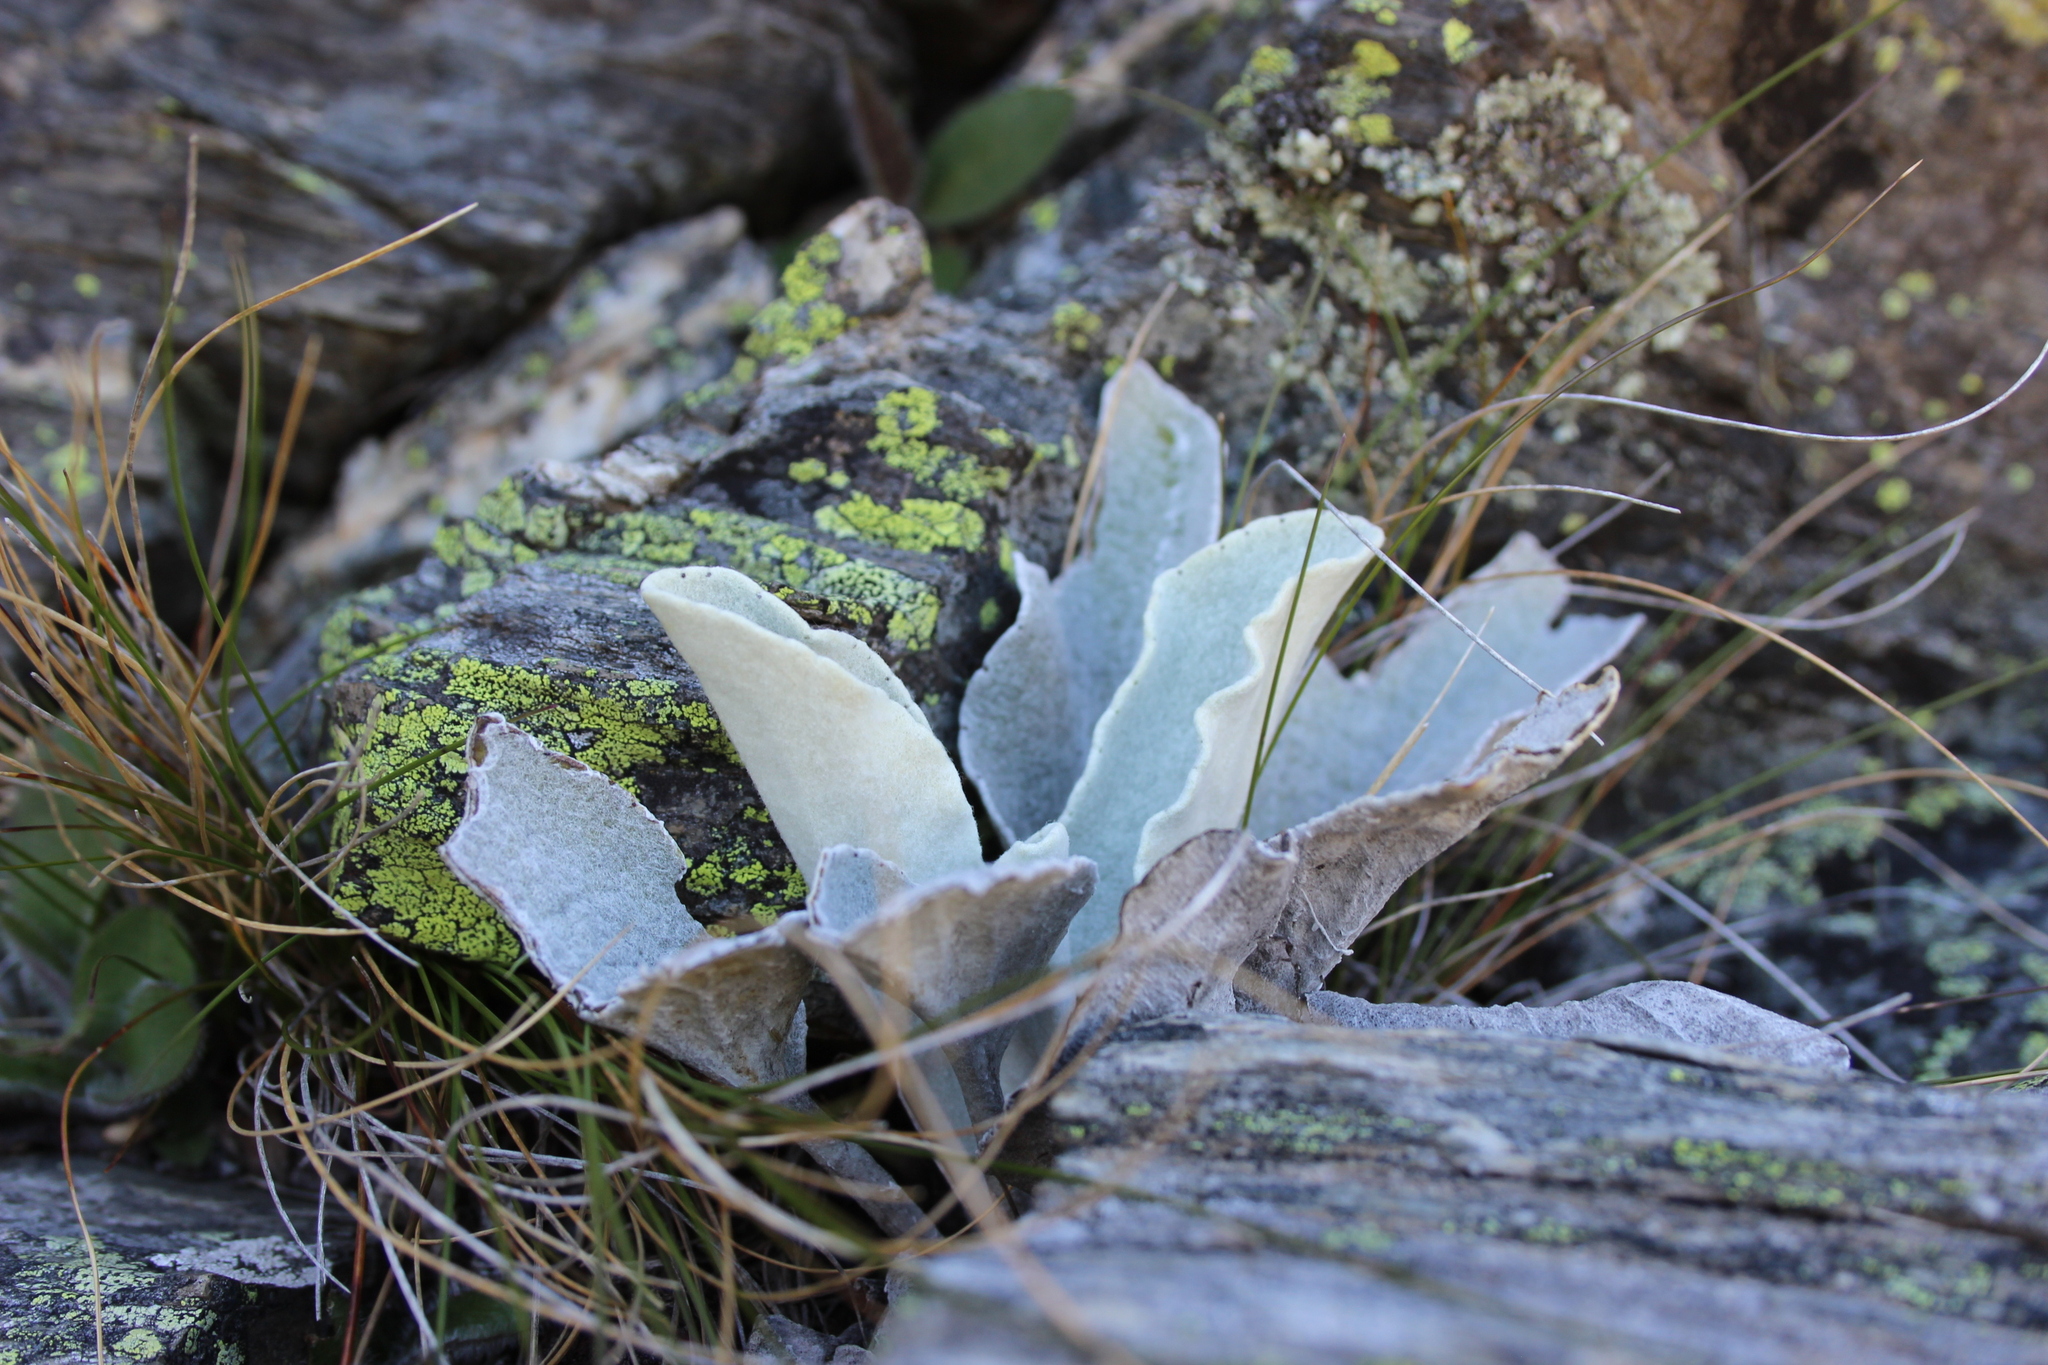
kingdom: Plantae
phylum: Tracheophyta
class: Magnoliopsida
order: Asterales
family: Asteraceae
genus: Brachyglottis
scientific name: Brachyglottis haastii
